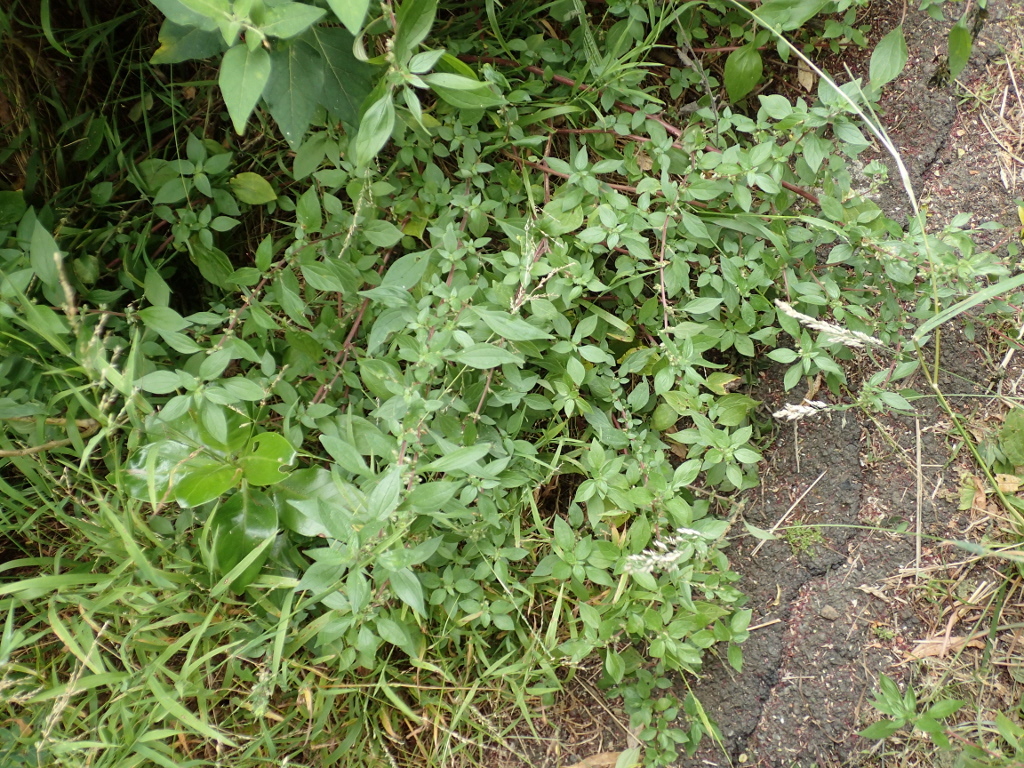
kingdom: Plantae
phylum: Tracheophyta
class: Magnoliopsida
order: Rosales
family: Urticaceae
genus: Parietaria
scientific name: Parietaria judaica
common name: Pellitory-of-the-wall
